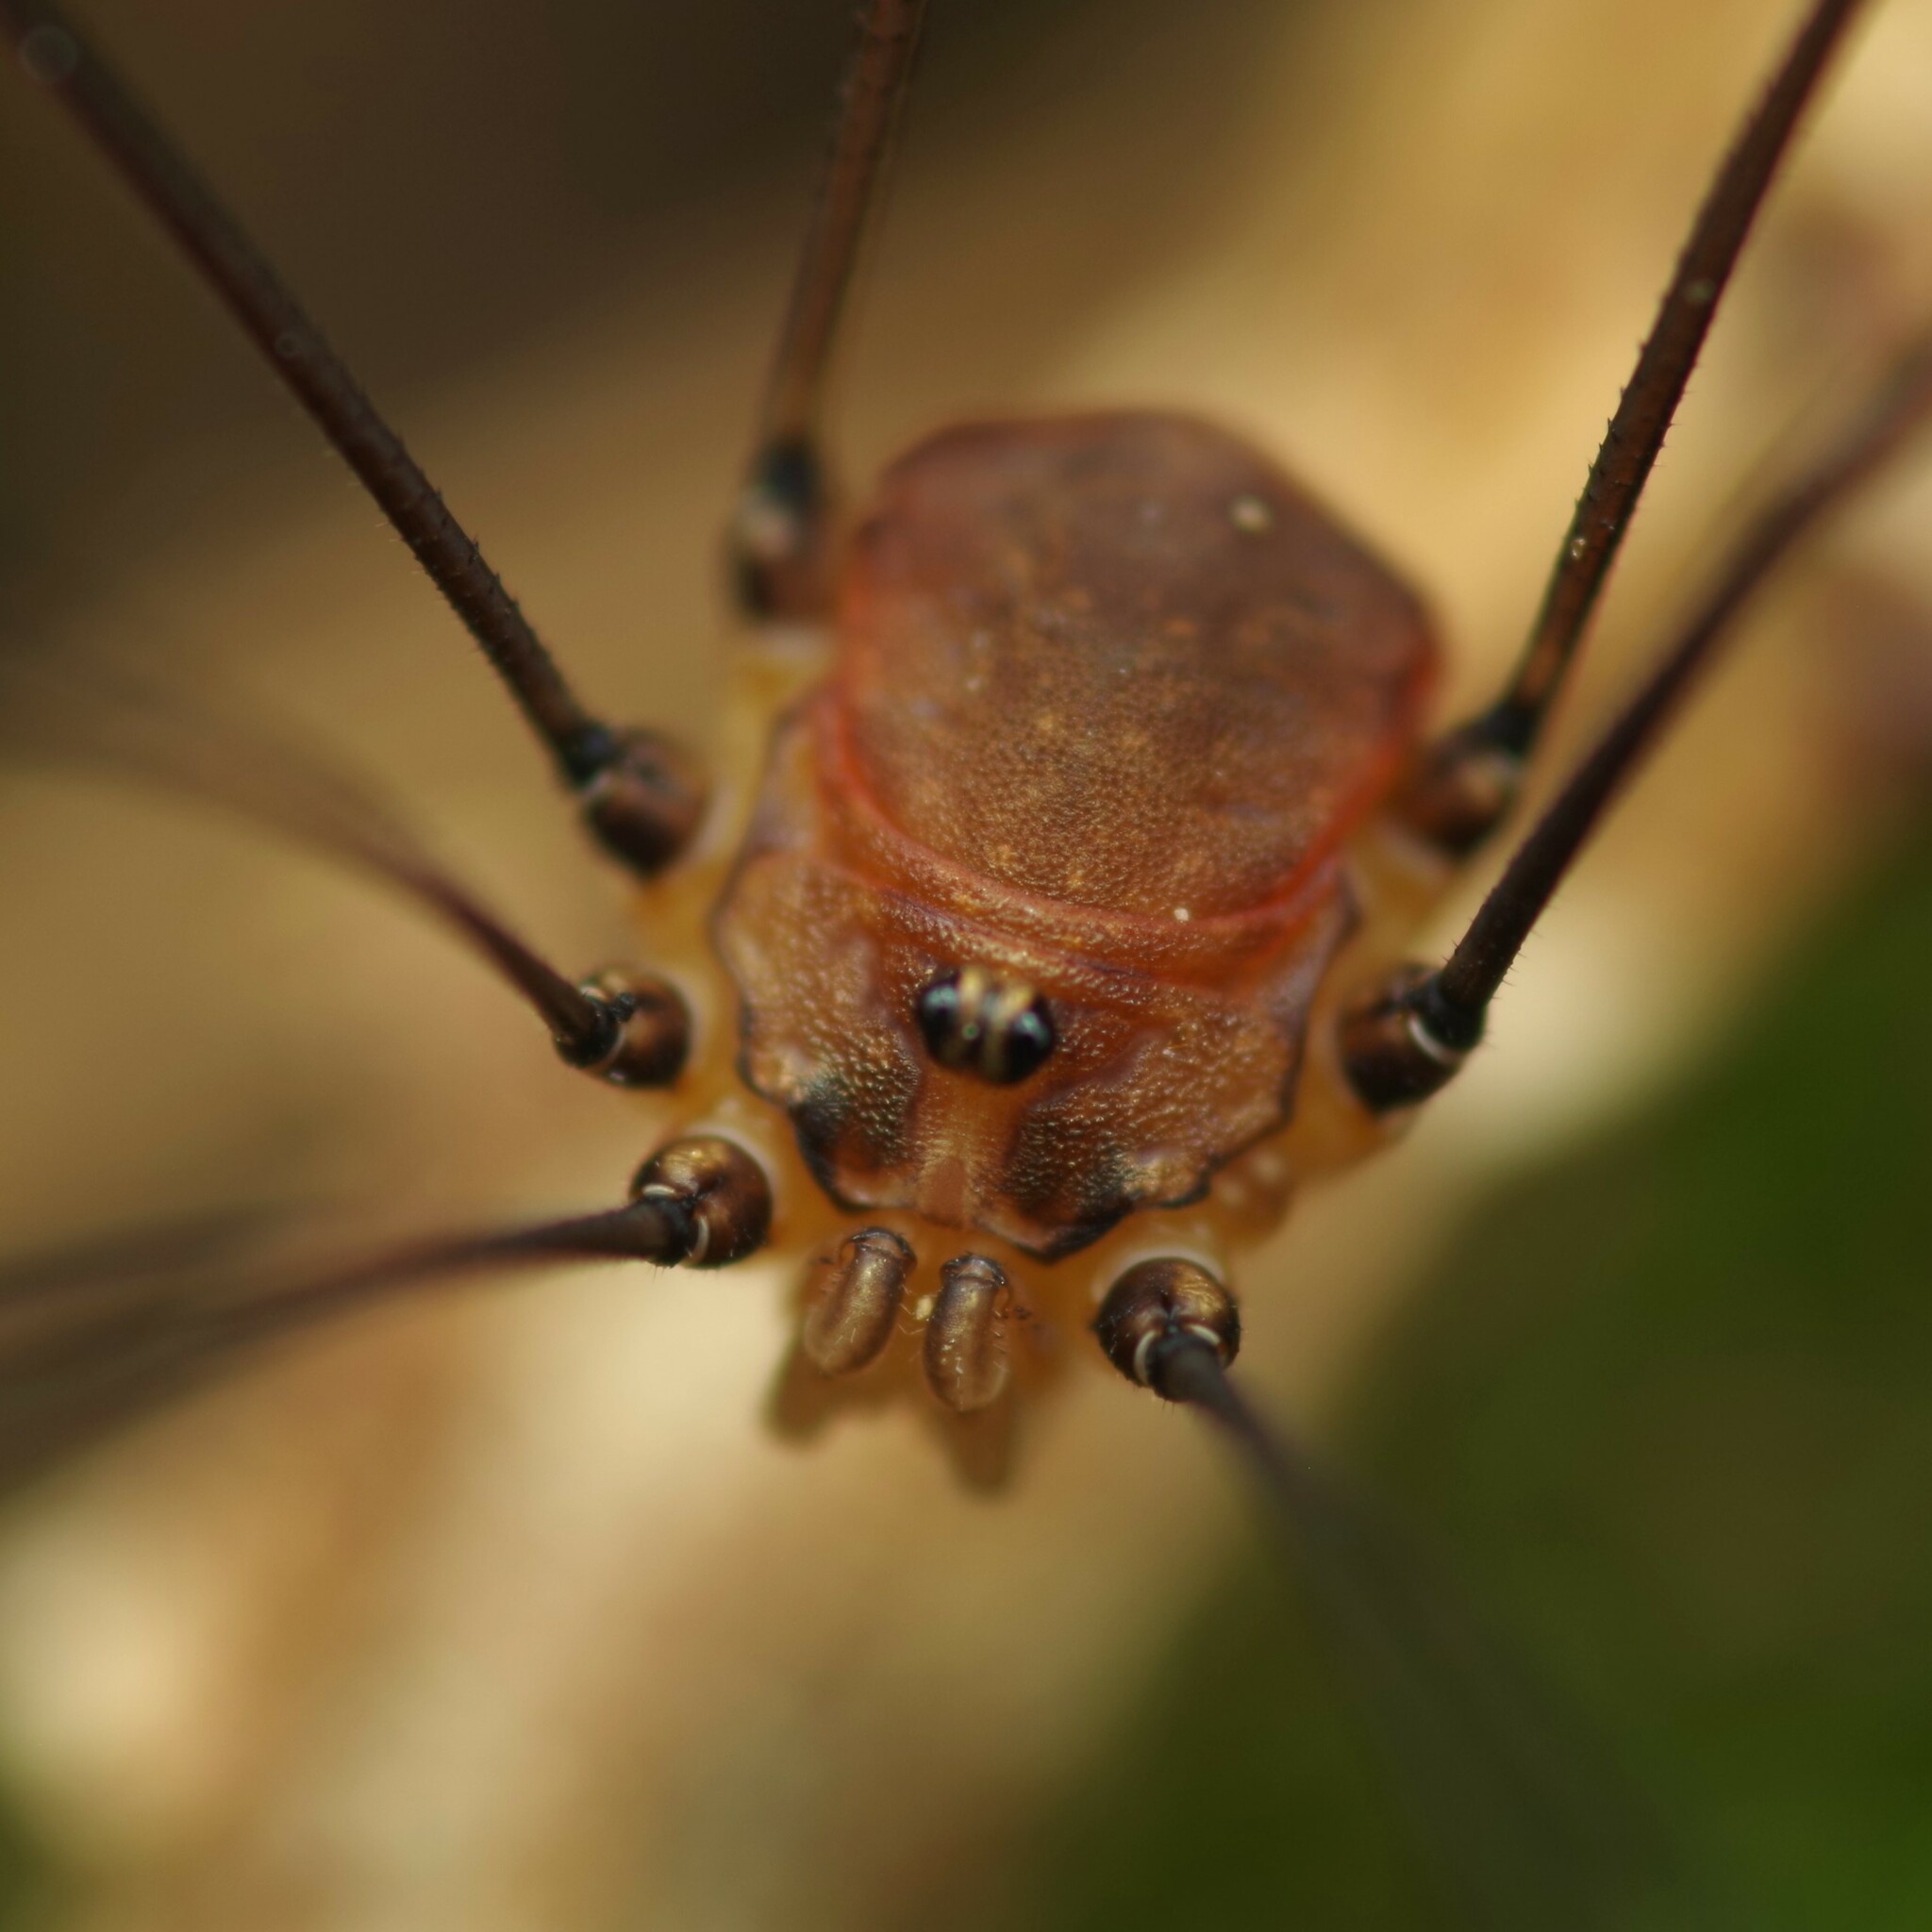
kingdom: Animalia
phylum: Arthropoda
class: Arachnida
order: Opiliones
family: Sclerosomatidae
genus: Leiobunum
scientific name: Leiobunum blackwalli
